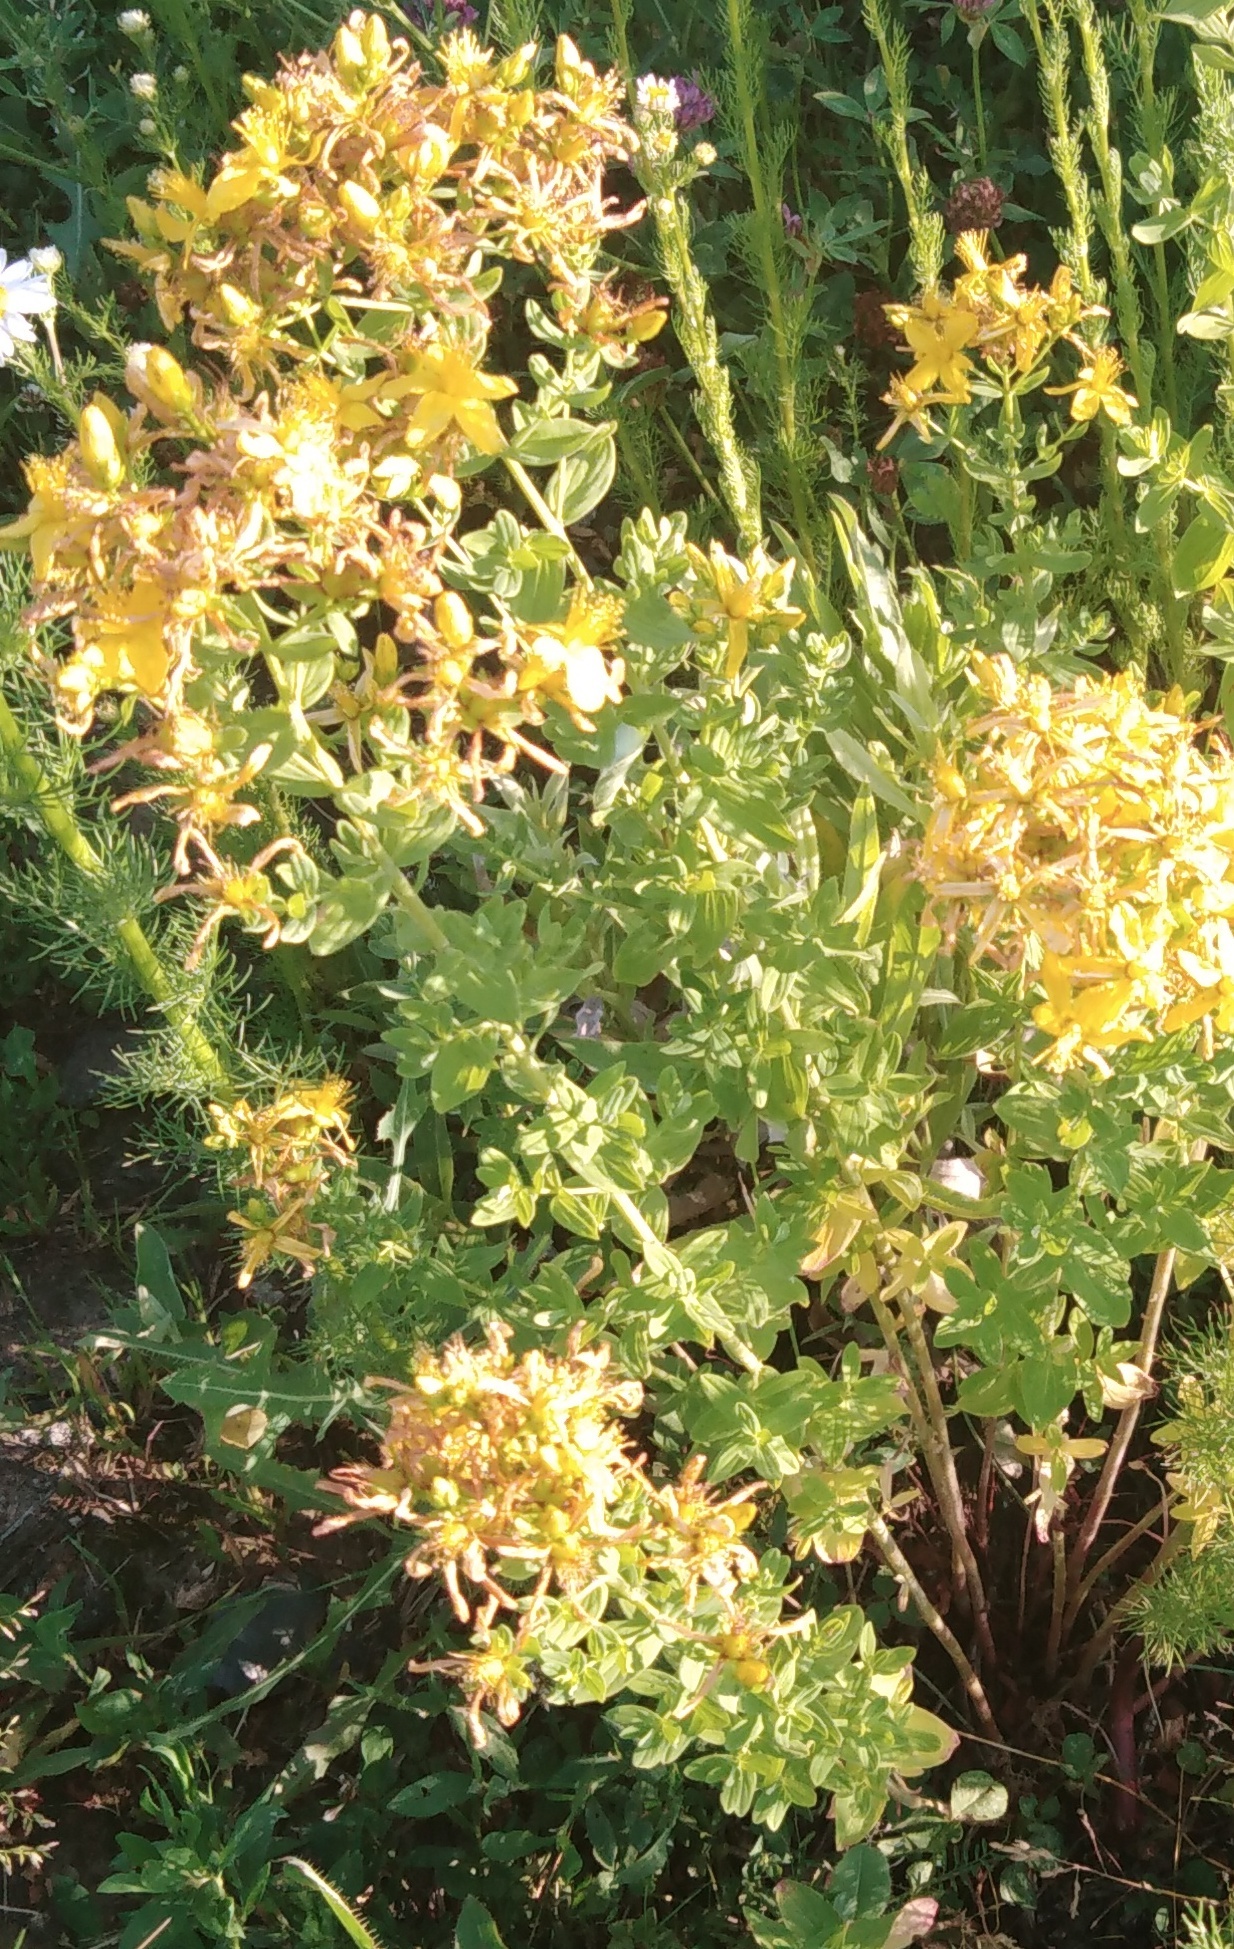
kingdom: Plantae
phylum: Tracheophyta
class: Magnoliopsida
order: Malpighiales
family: Hypericaceae
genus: Hypericum
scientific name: Hypericum perforatum
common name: Common st. johnswort
